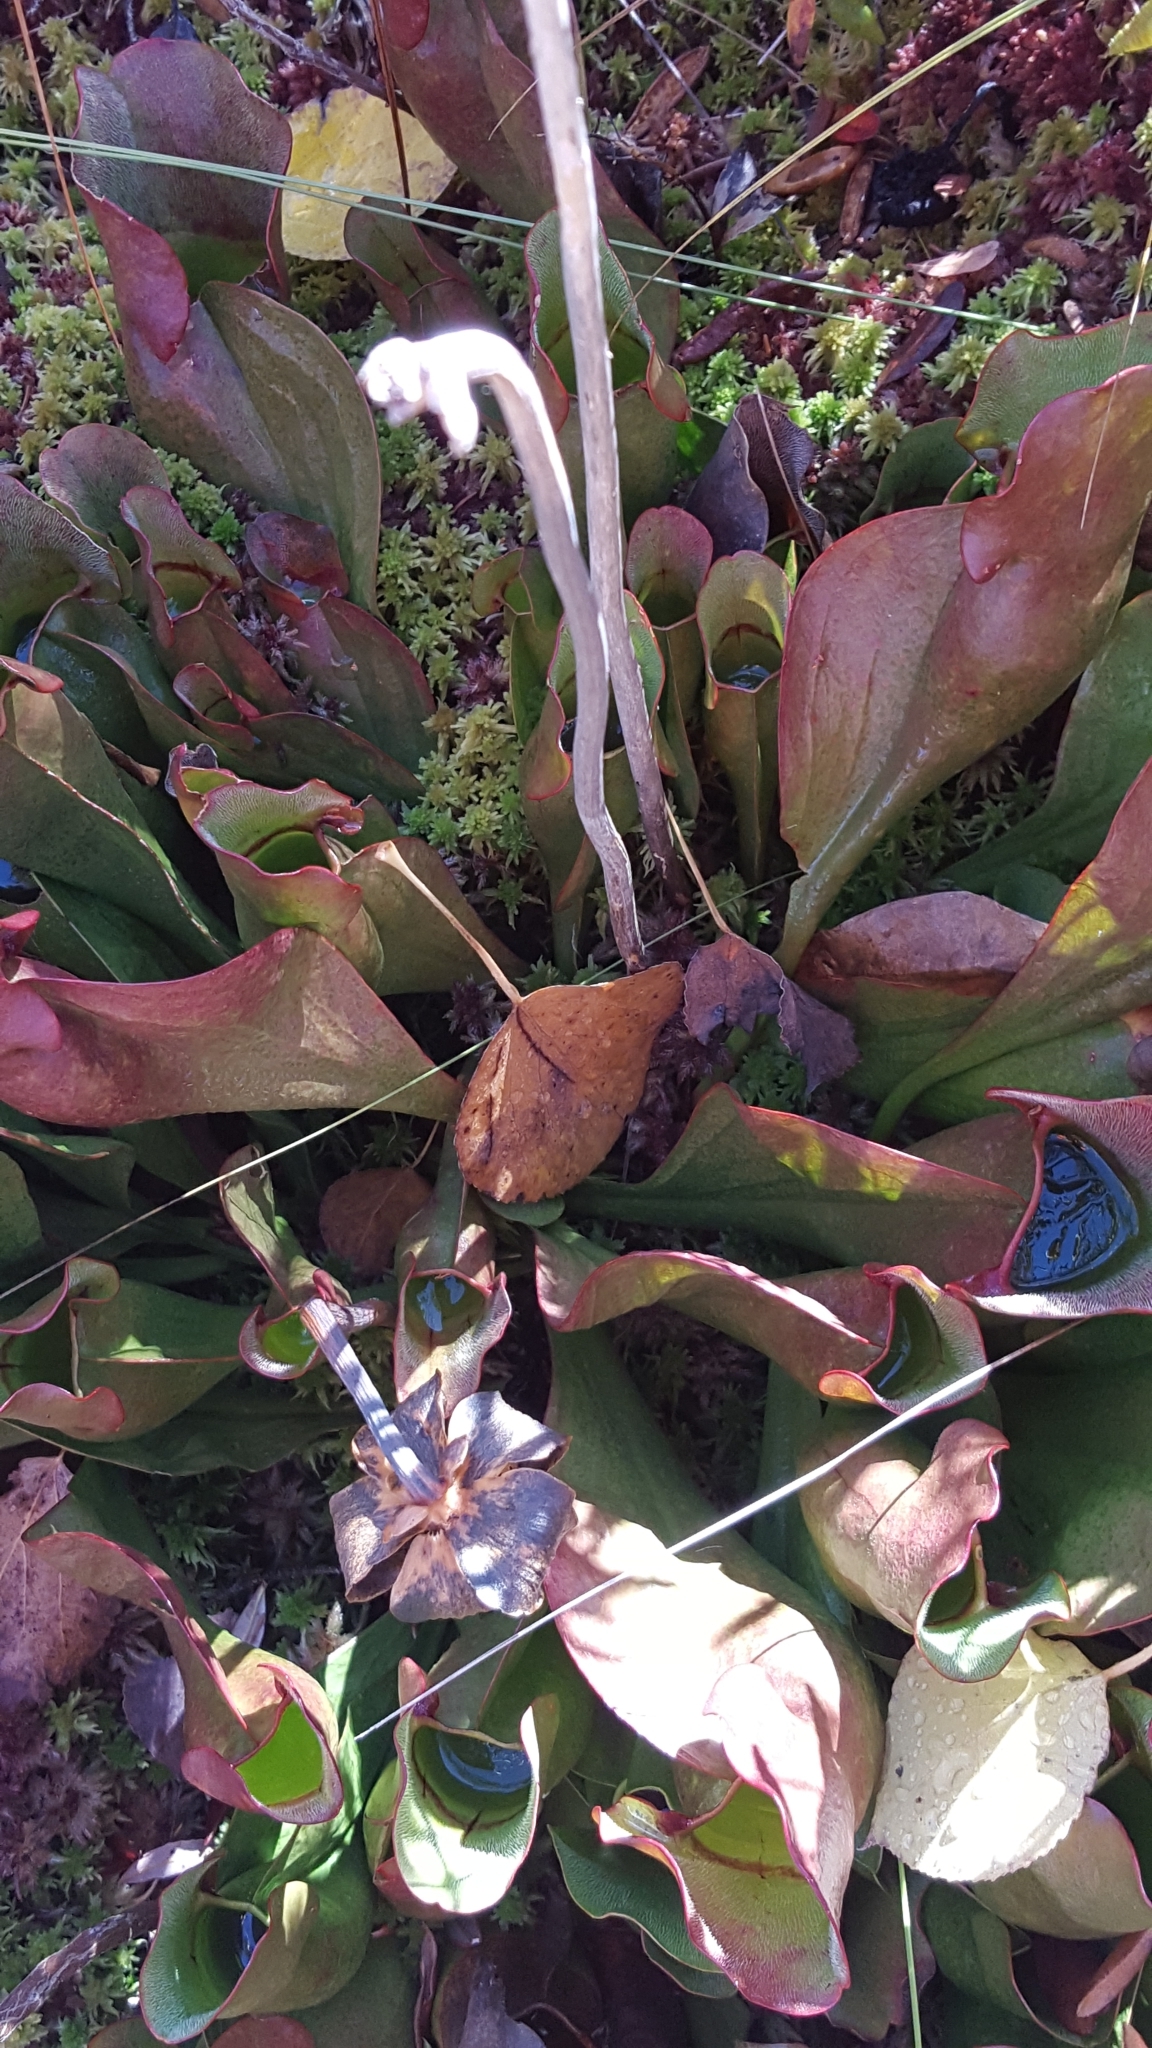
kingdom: Plantae
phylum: Tracheophyta
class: Magnoliopsida
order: Ericales
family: Sarraceniaceae
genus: Sarracenia
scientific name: Sarracenia purpurea
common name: Pitcherplant
